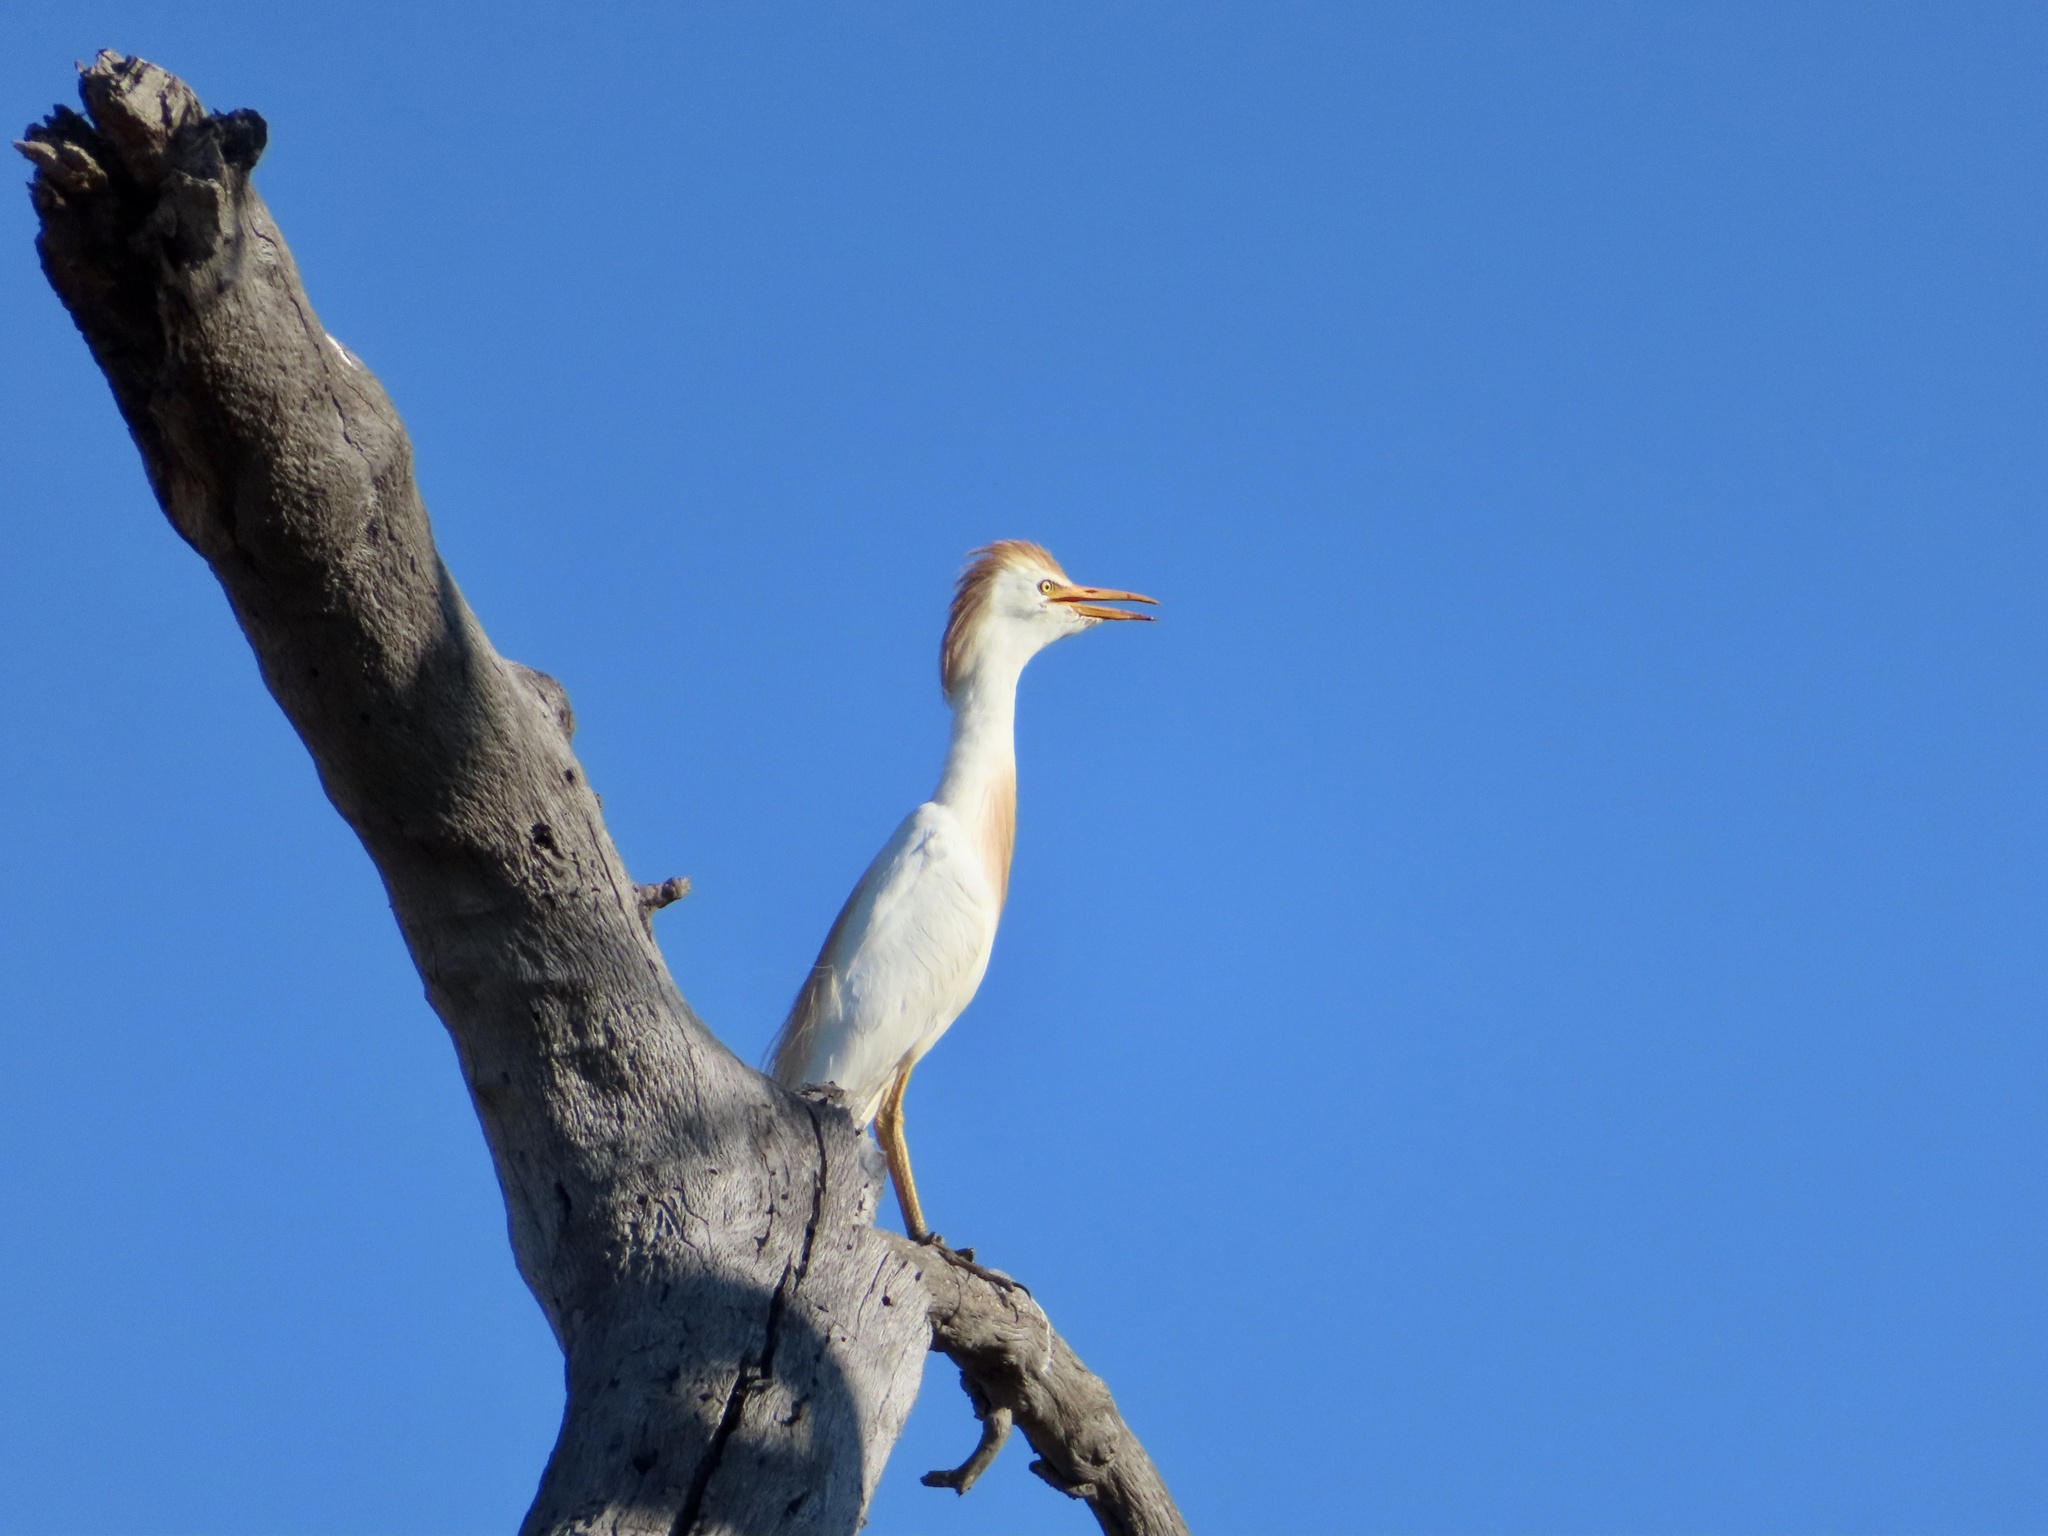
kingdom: Animalia
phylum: Chordata
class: Aves
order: Pelecaniformes
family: Ardeidae
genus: Bubulcus
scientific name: Bubulcus ibis
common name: Cattle egret
